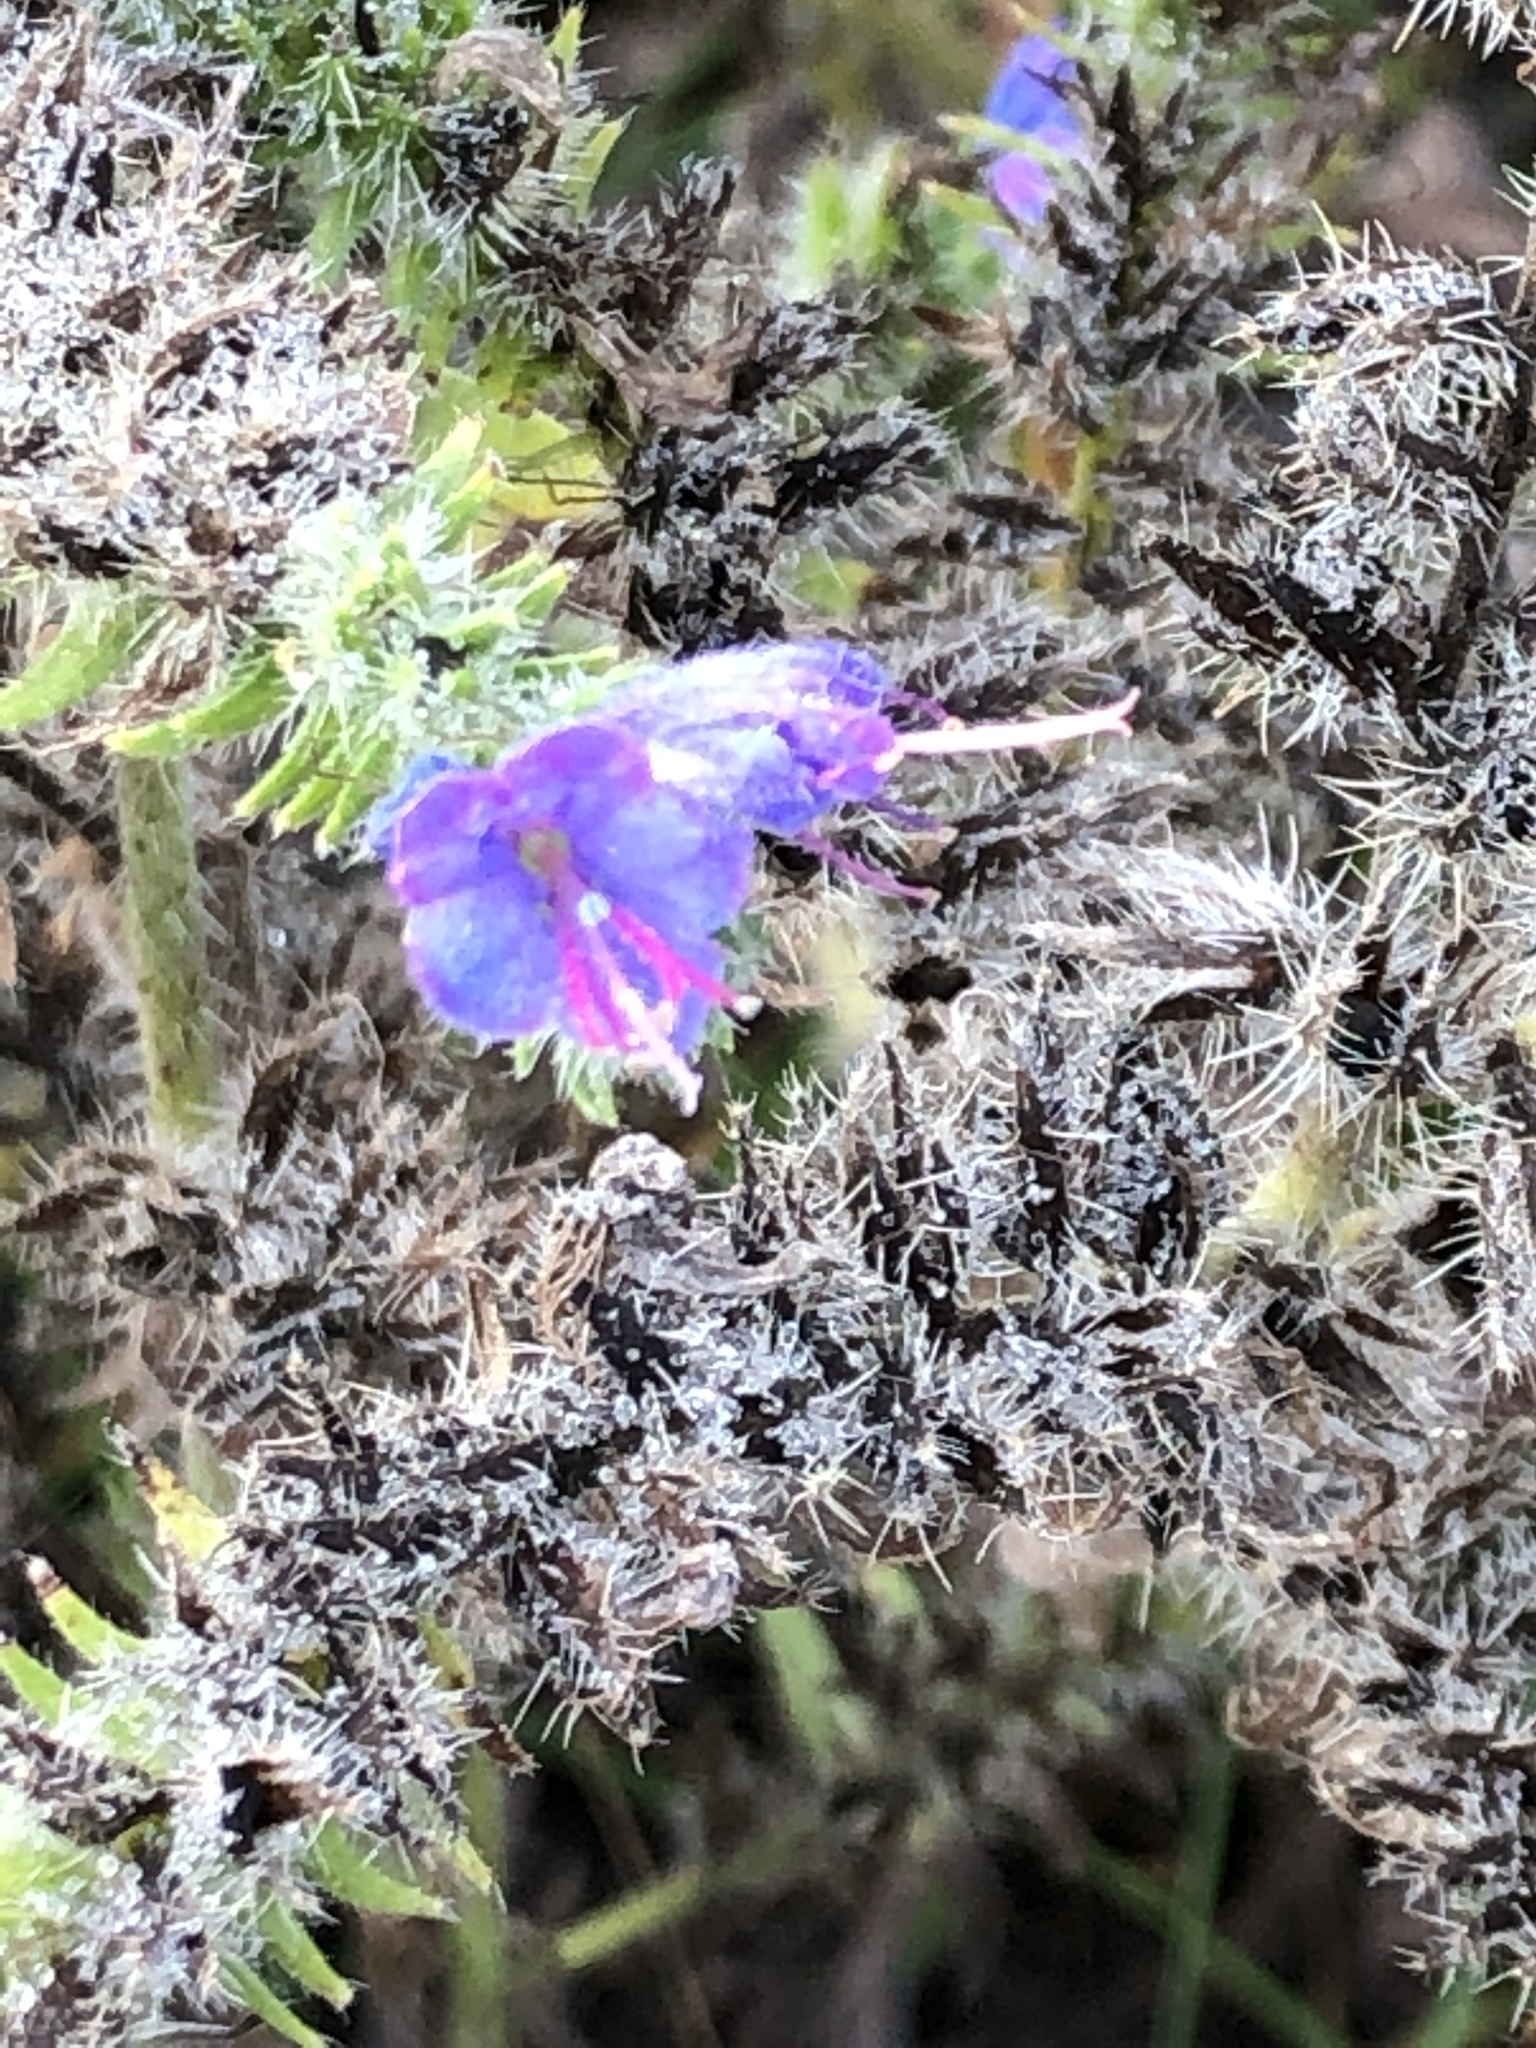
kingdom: Plantae
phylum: Tracheophyta
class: Magnoliopsida
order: Boraginales
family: Boraginaceae
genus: Echium
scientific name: Echium vulgare
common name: Common viper's bugloss
